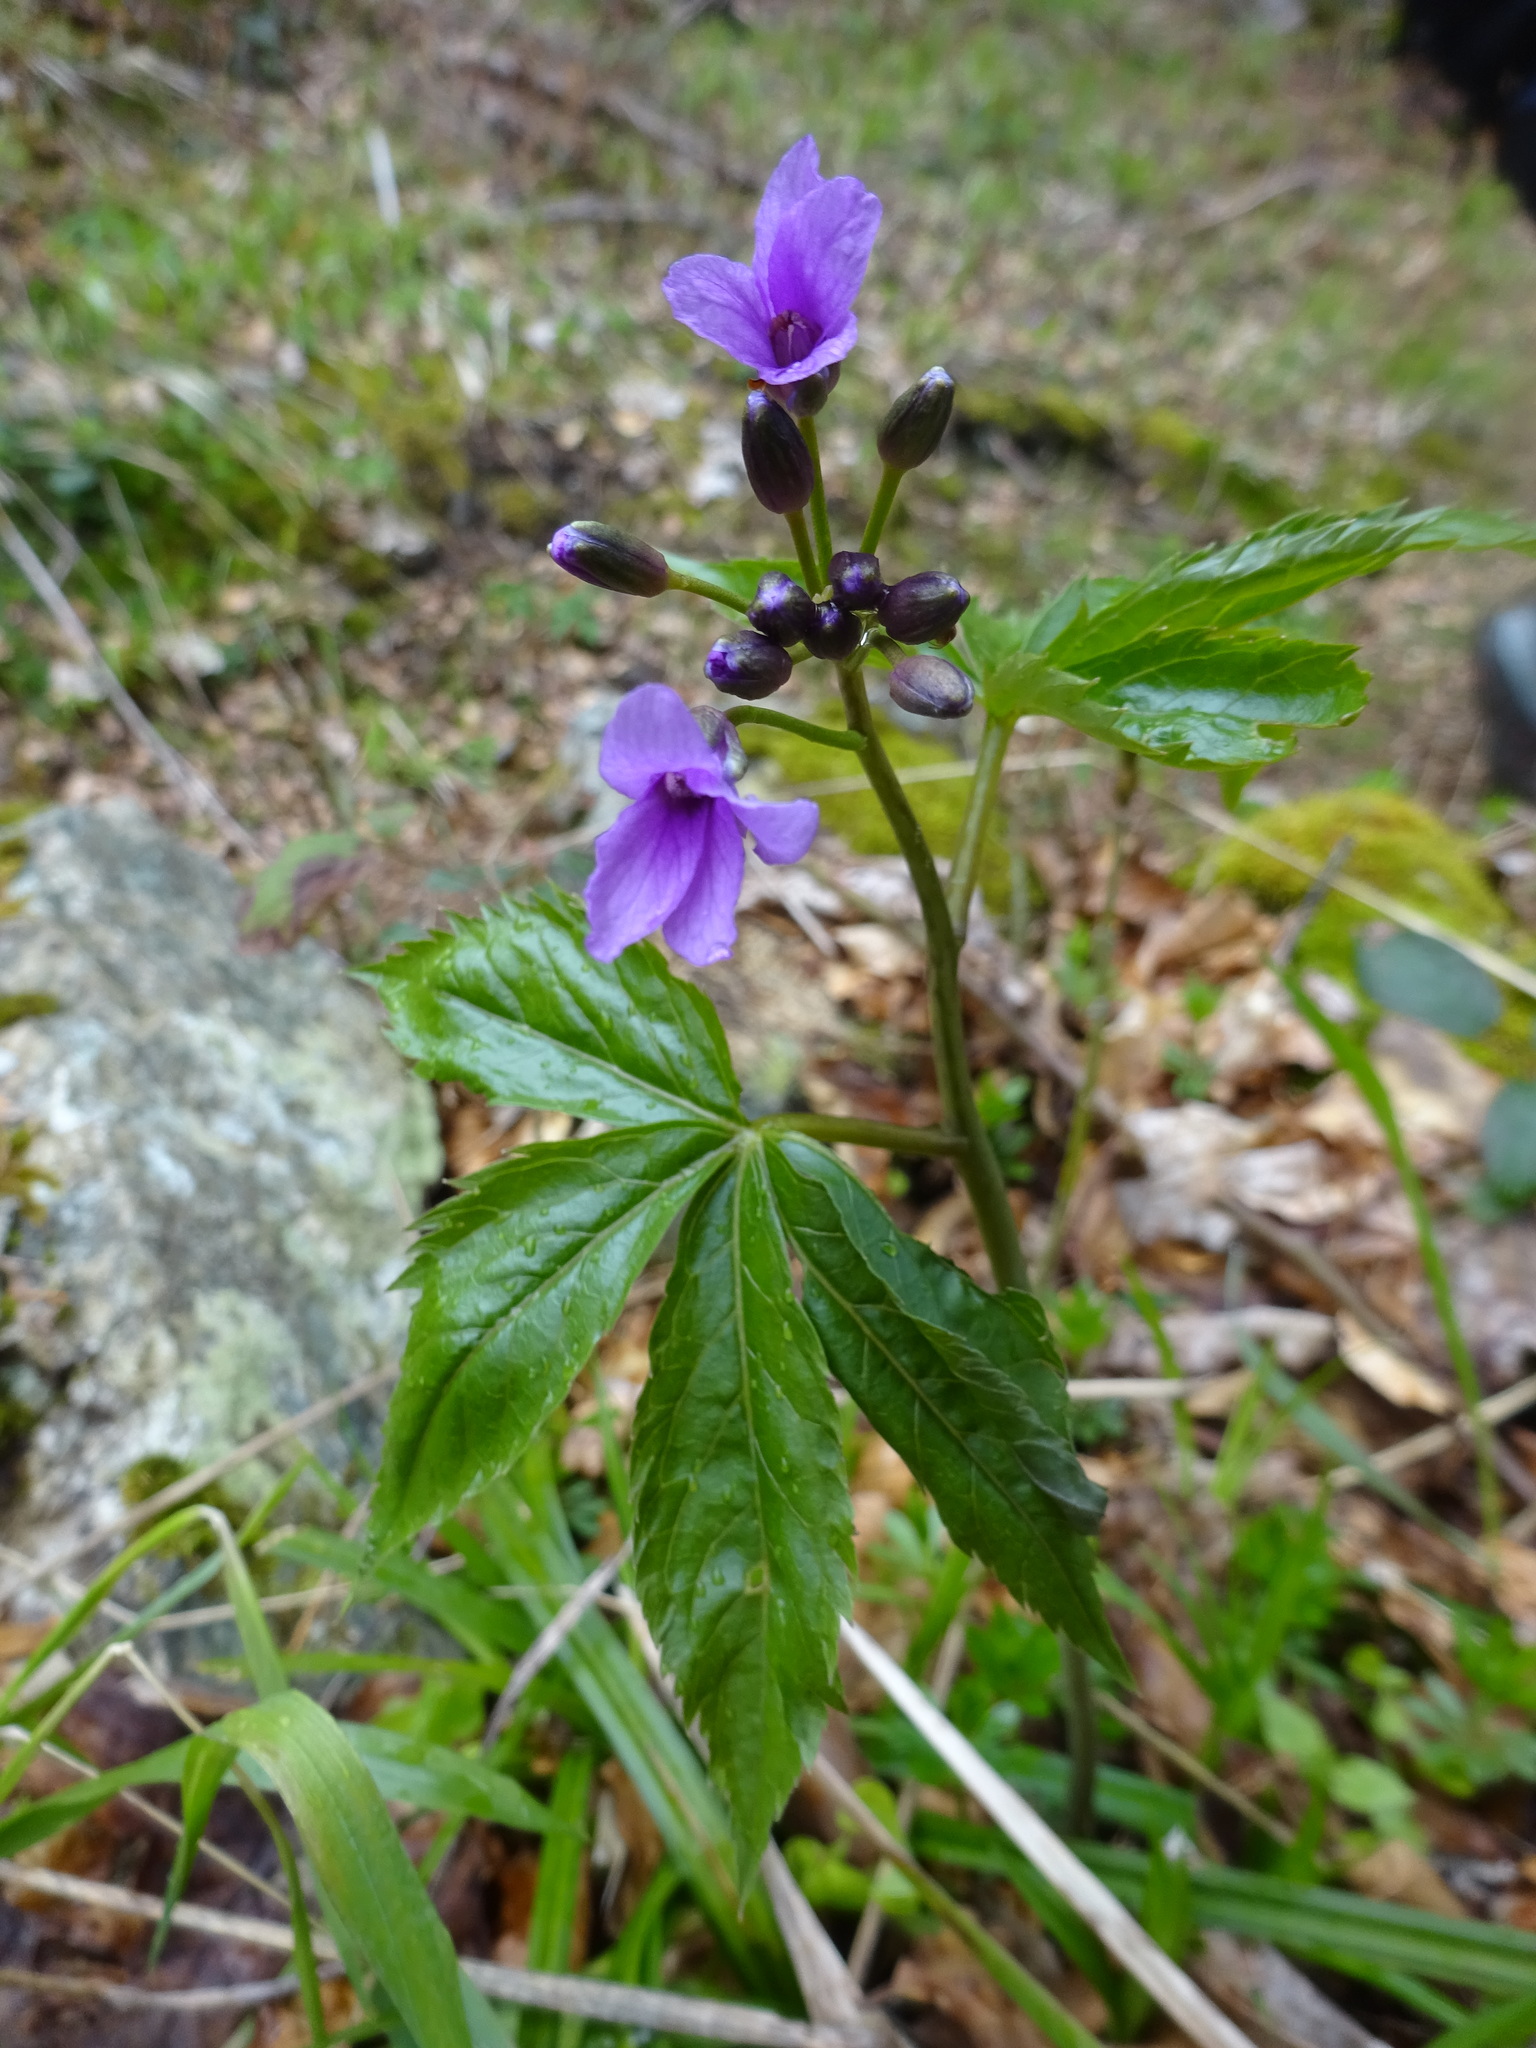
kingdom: Plantae
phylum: Tracheophyta
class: Magnoliopsida
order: Brassicales
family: Brassicaceae
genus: Cardamine
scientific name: Cardamine pentaphyllos
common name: Five-leaflet bitter-cress
